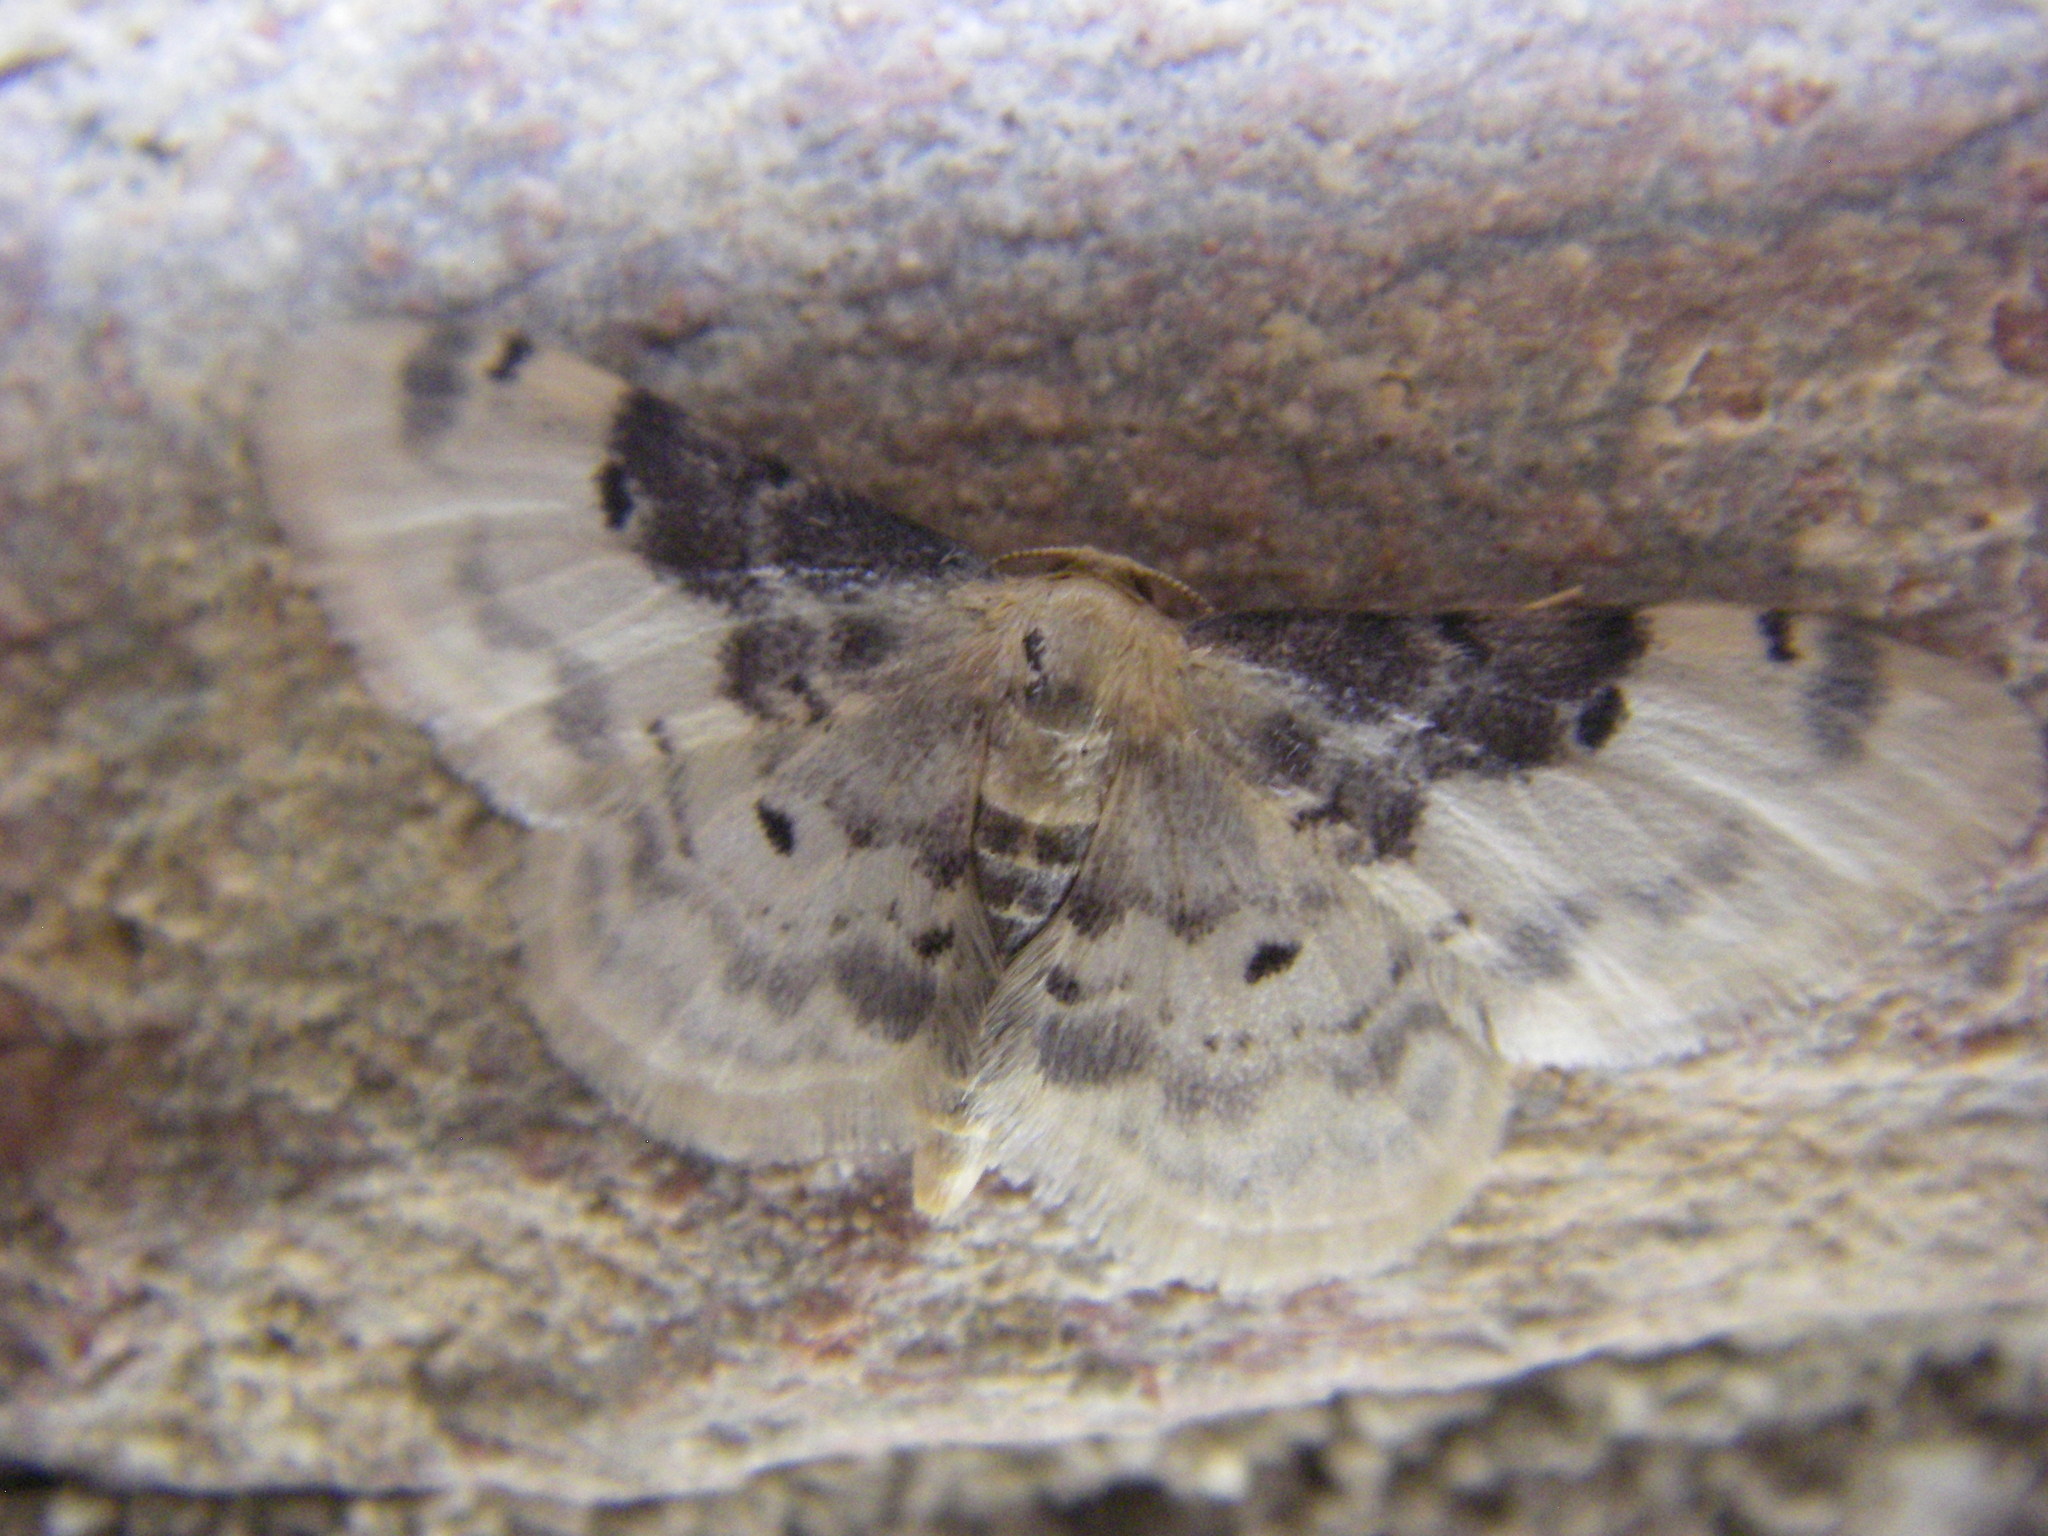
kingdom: Animalia
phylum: Arthropoda
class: Insecta
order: Lepidoptera
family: Geometridae
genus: Idaea
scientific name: Idaea filicata
